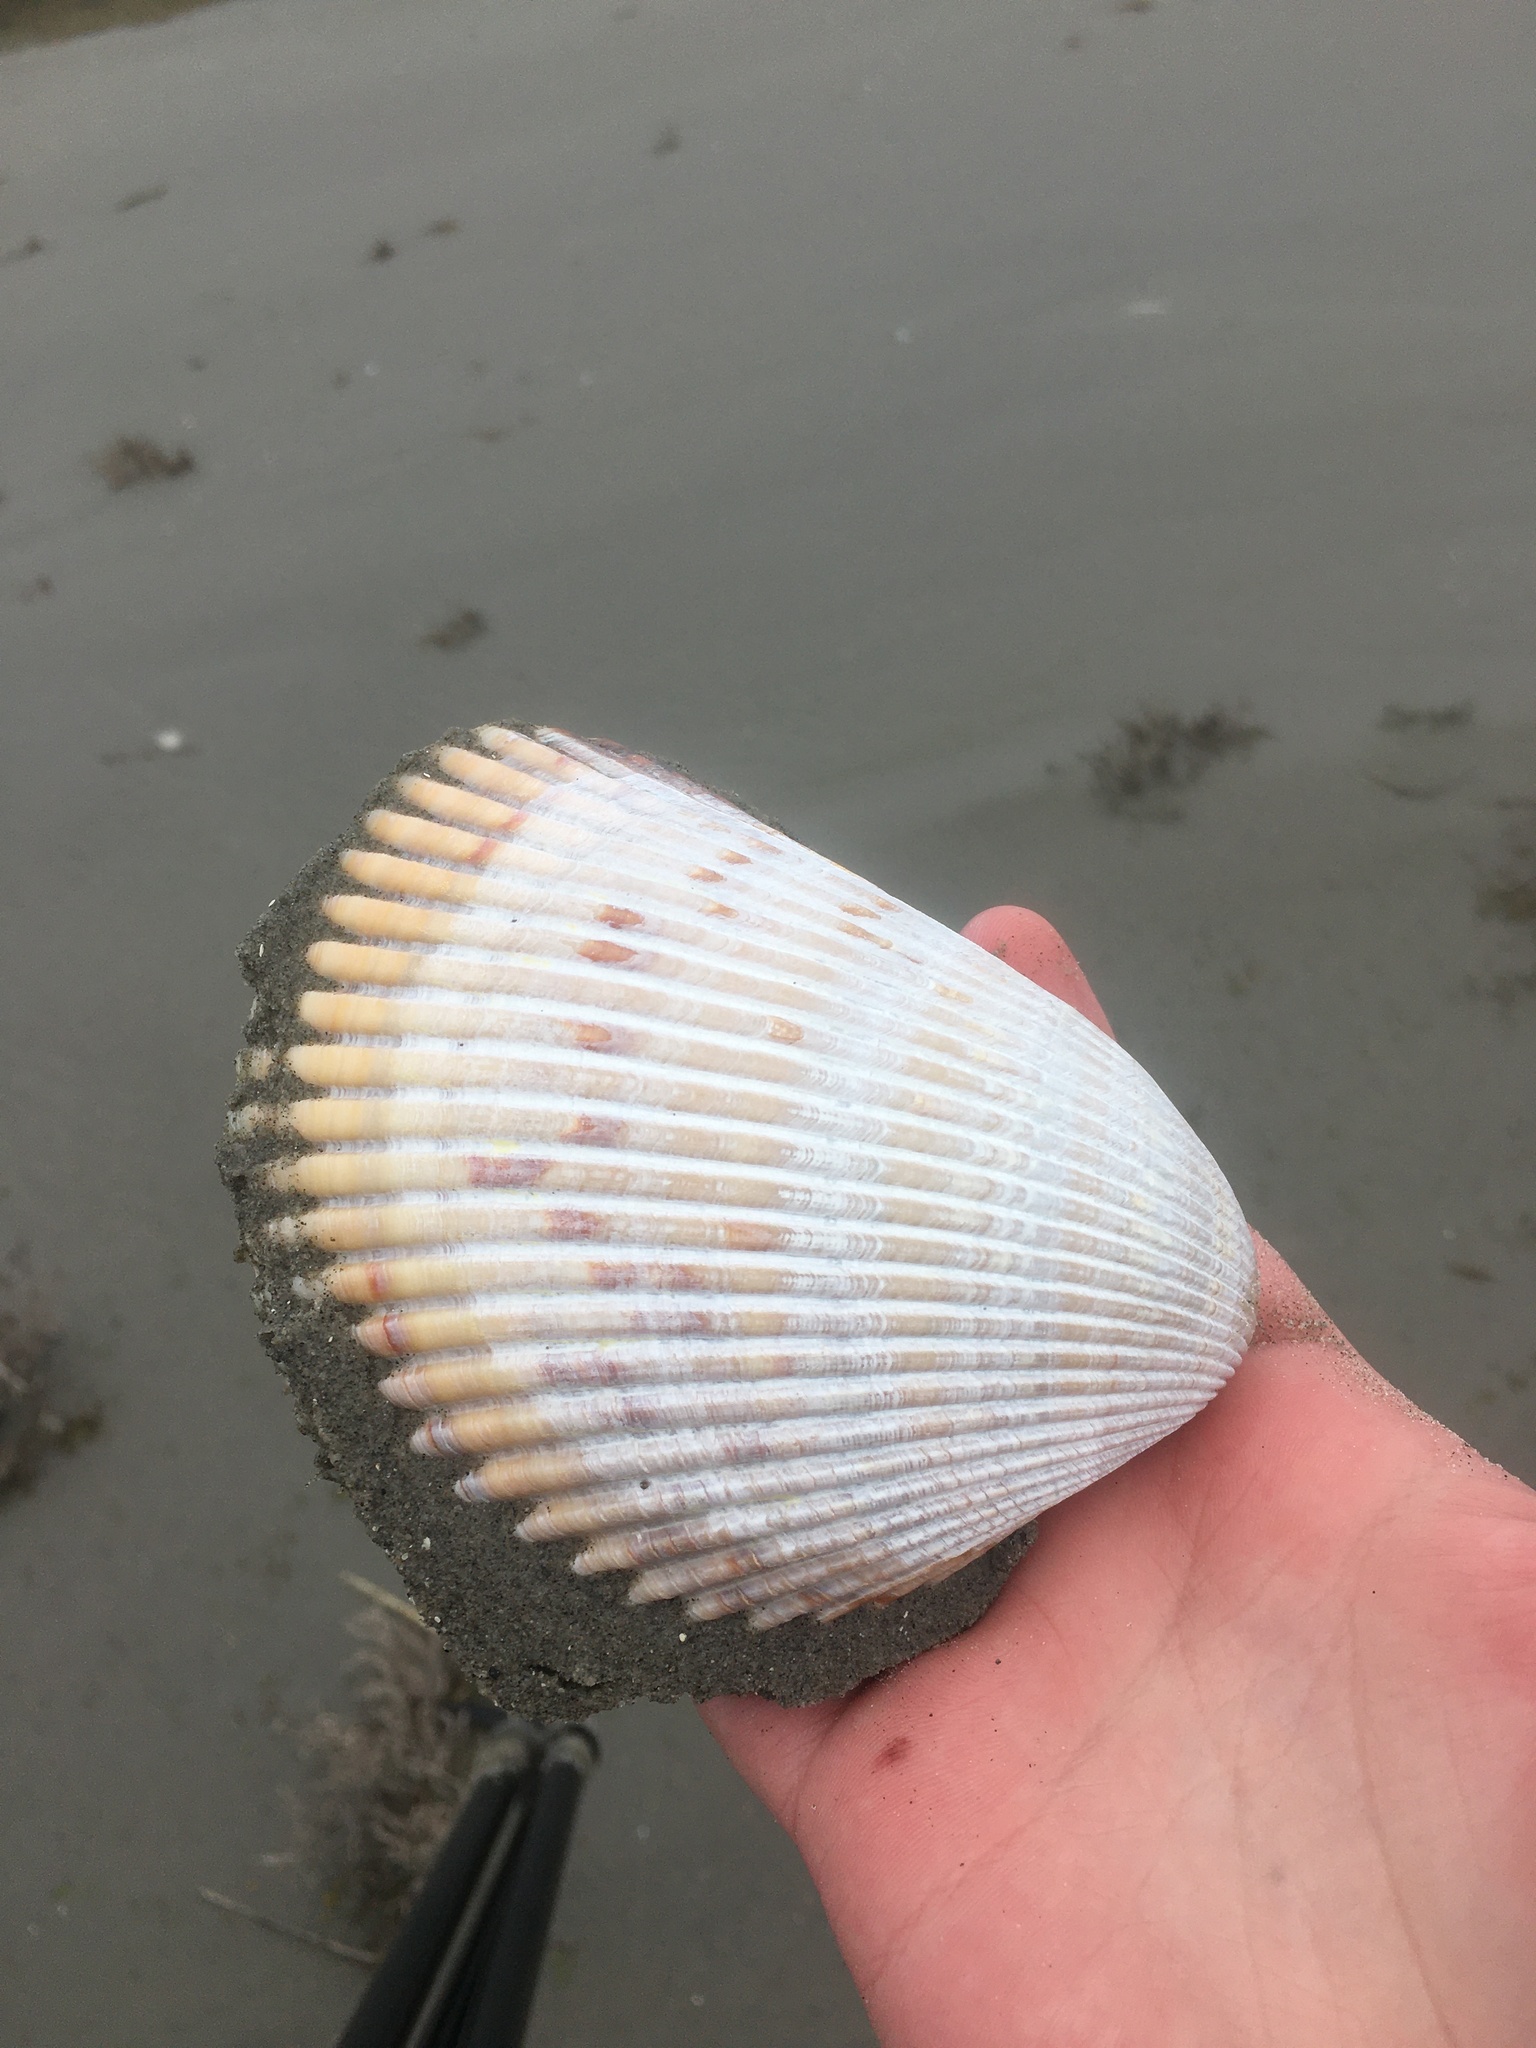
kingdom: Animalia
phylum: Mollusca
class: Bivalvia
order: Cardiida
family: Cardiidae
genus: Dinocardium
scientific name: Dinocardium robustum
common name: Atlantic giant cockle
